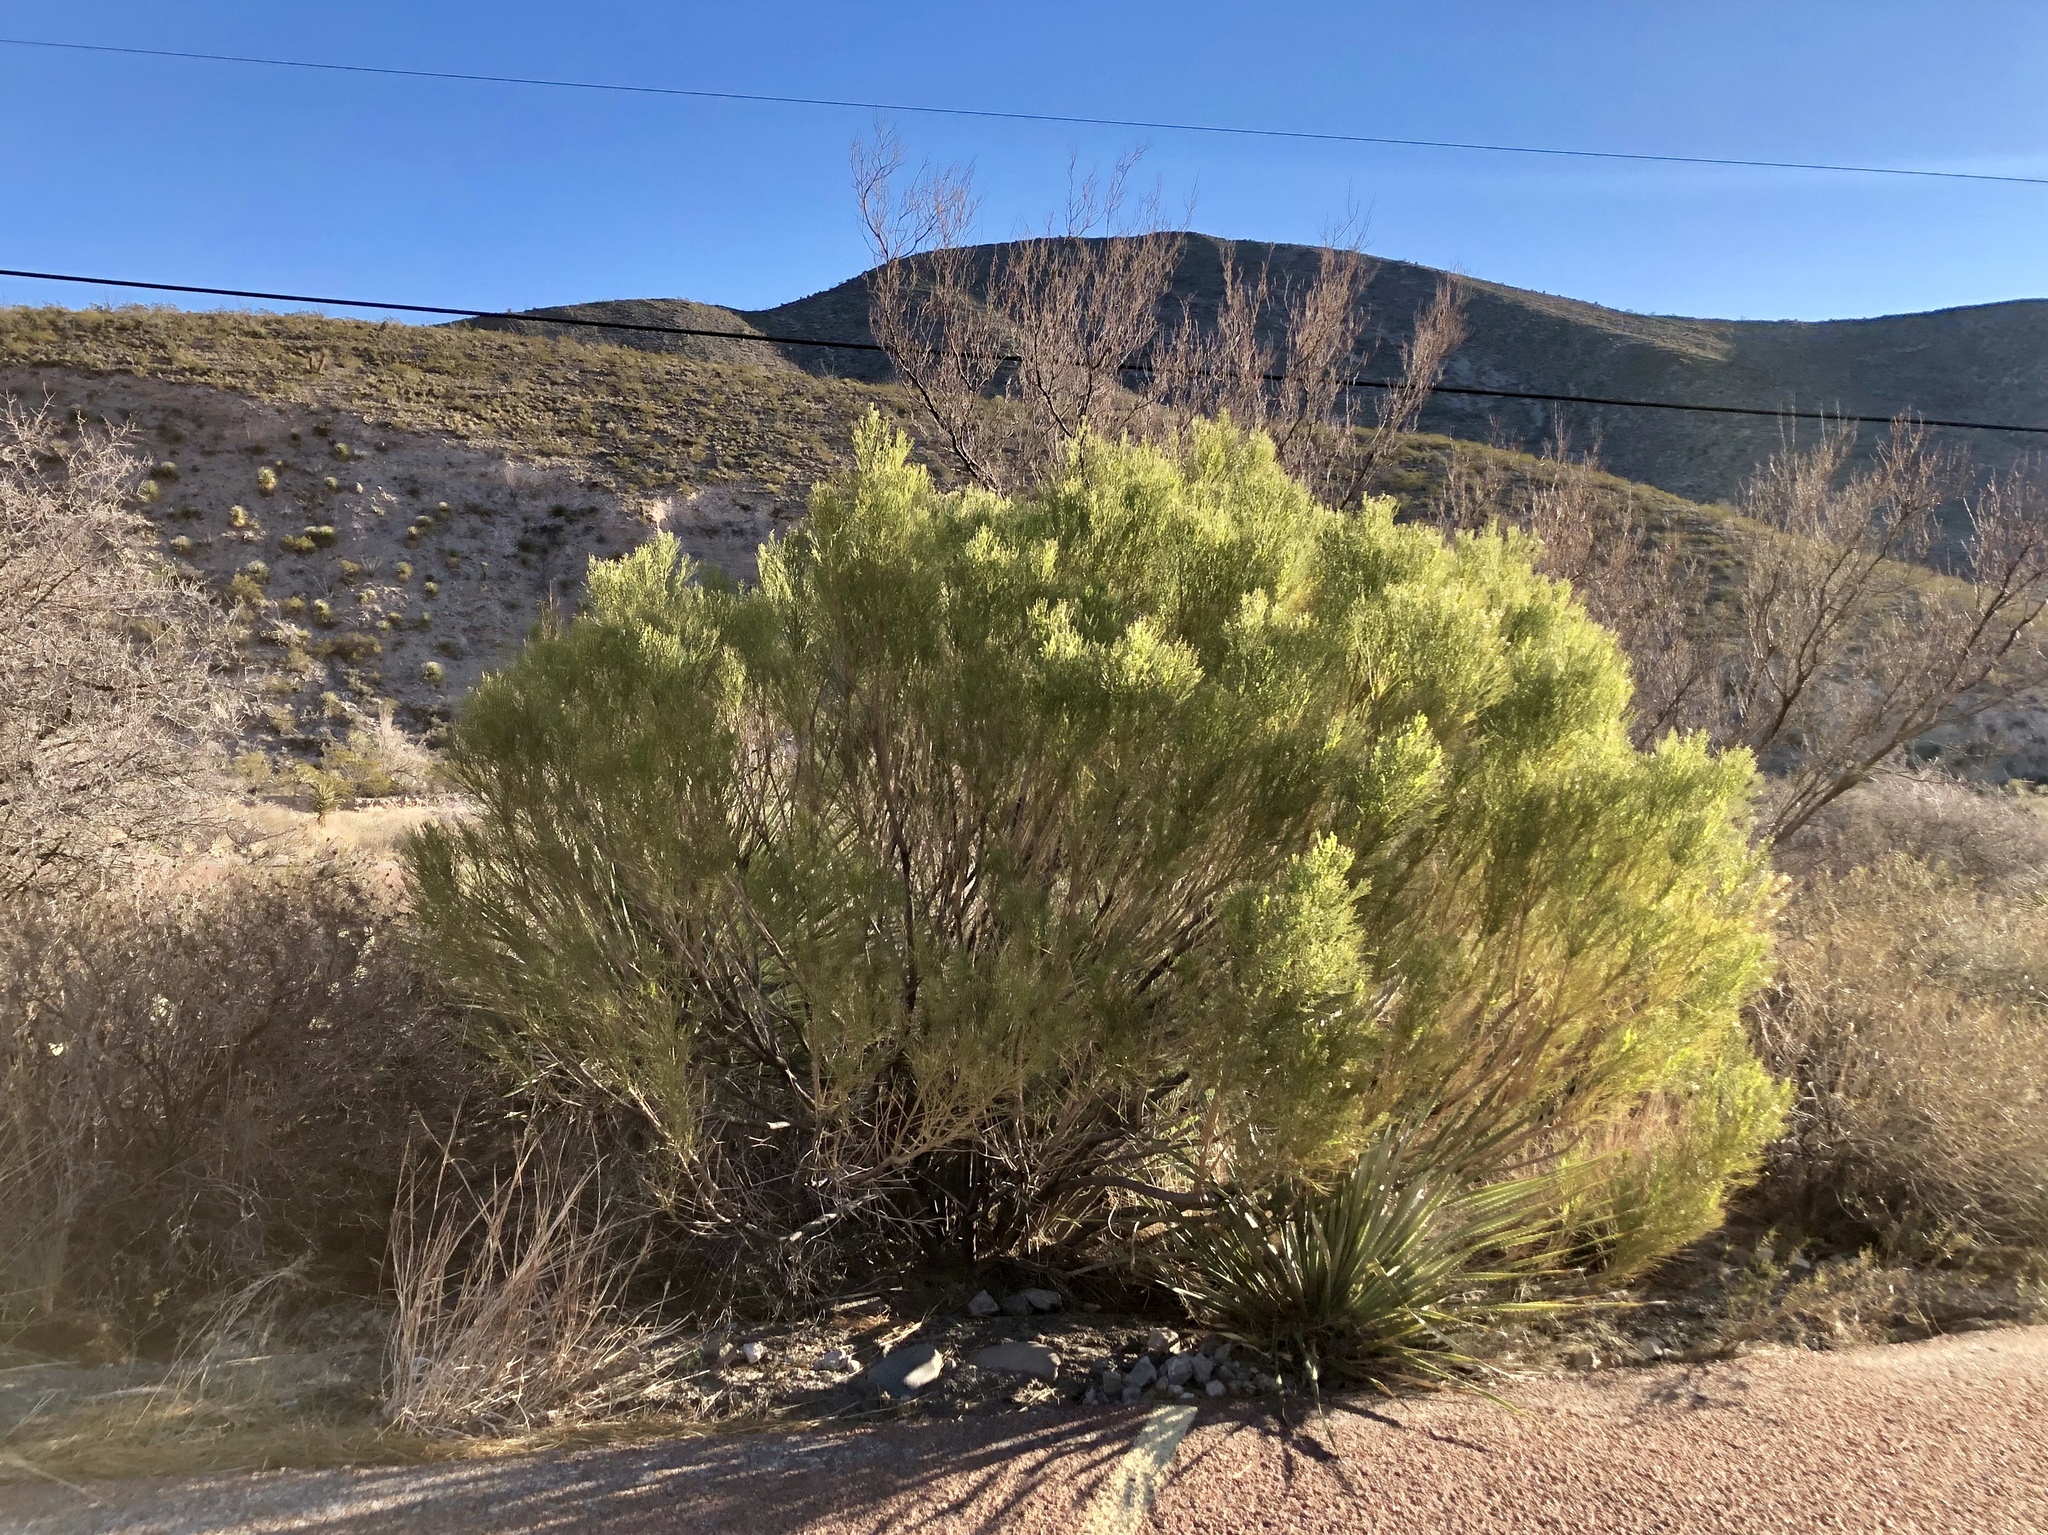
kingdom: Plantae
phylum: Tracheophyta
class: Magnoliopsida
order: Asterales
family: Asteraceae
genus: Baccharis
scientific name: Baccharis sarothroides
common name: Desert-broom
